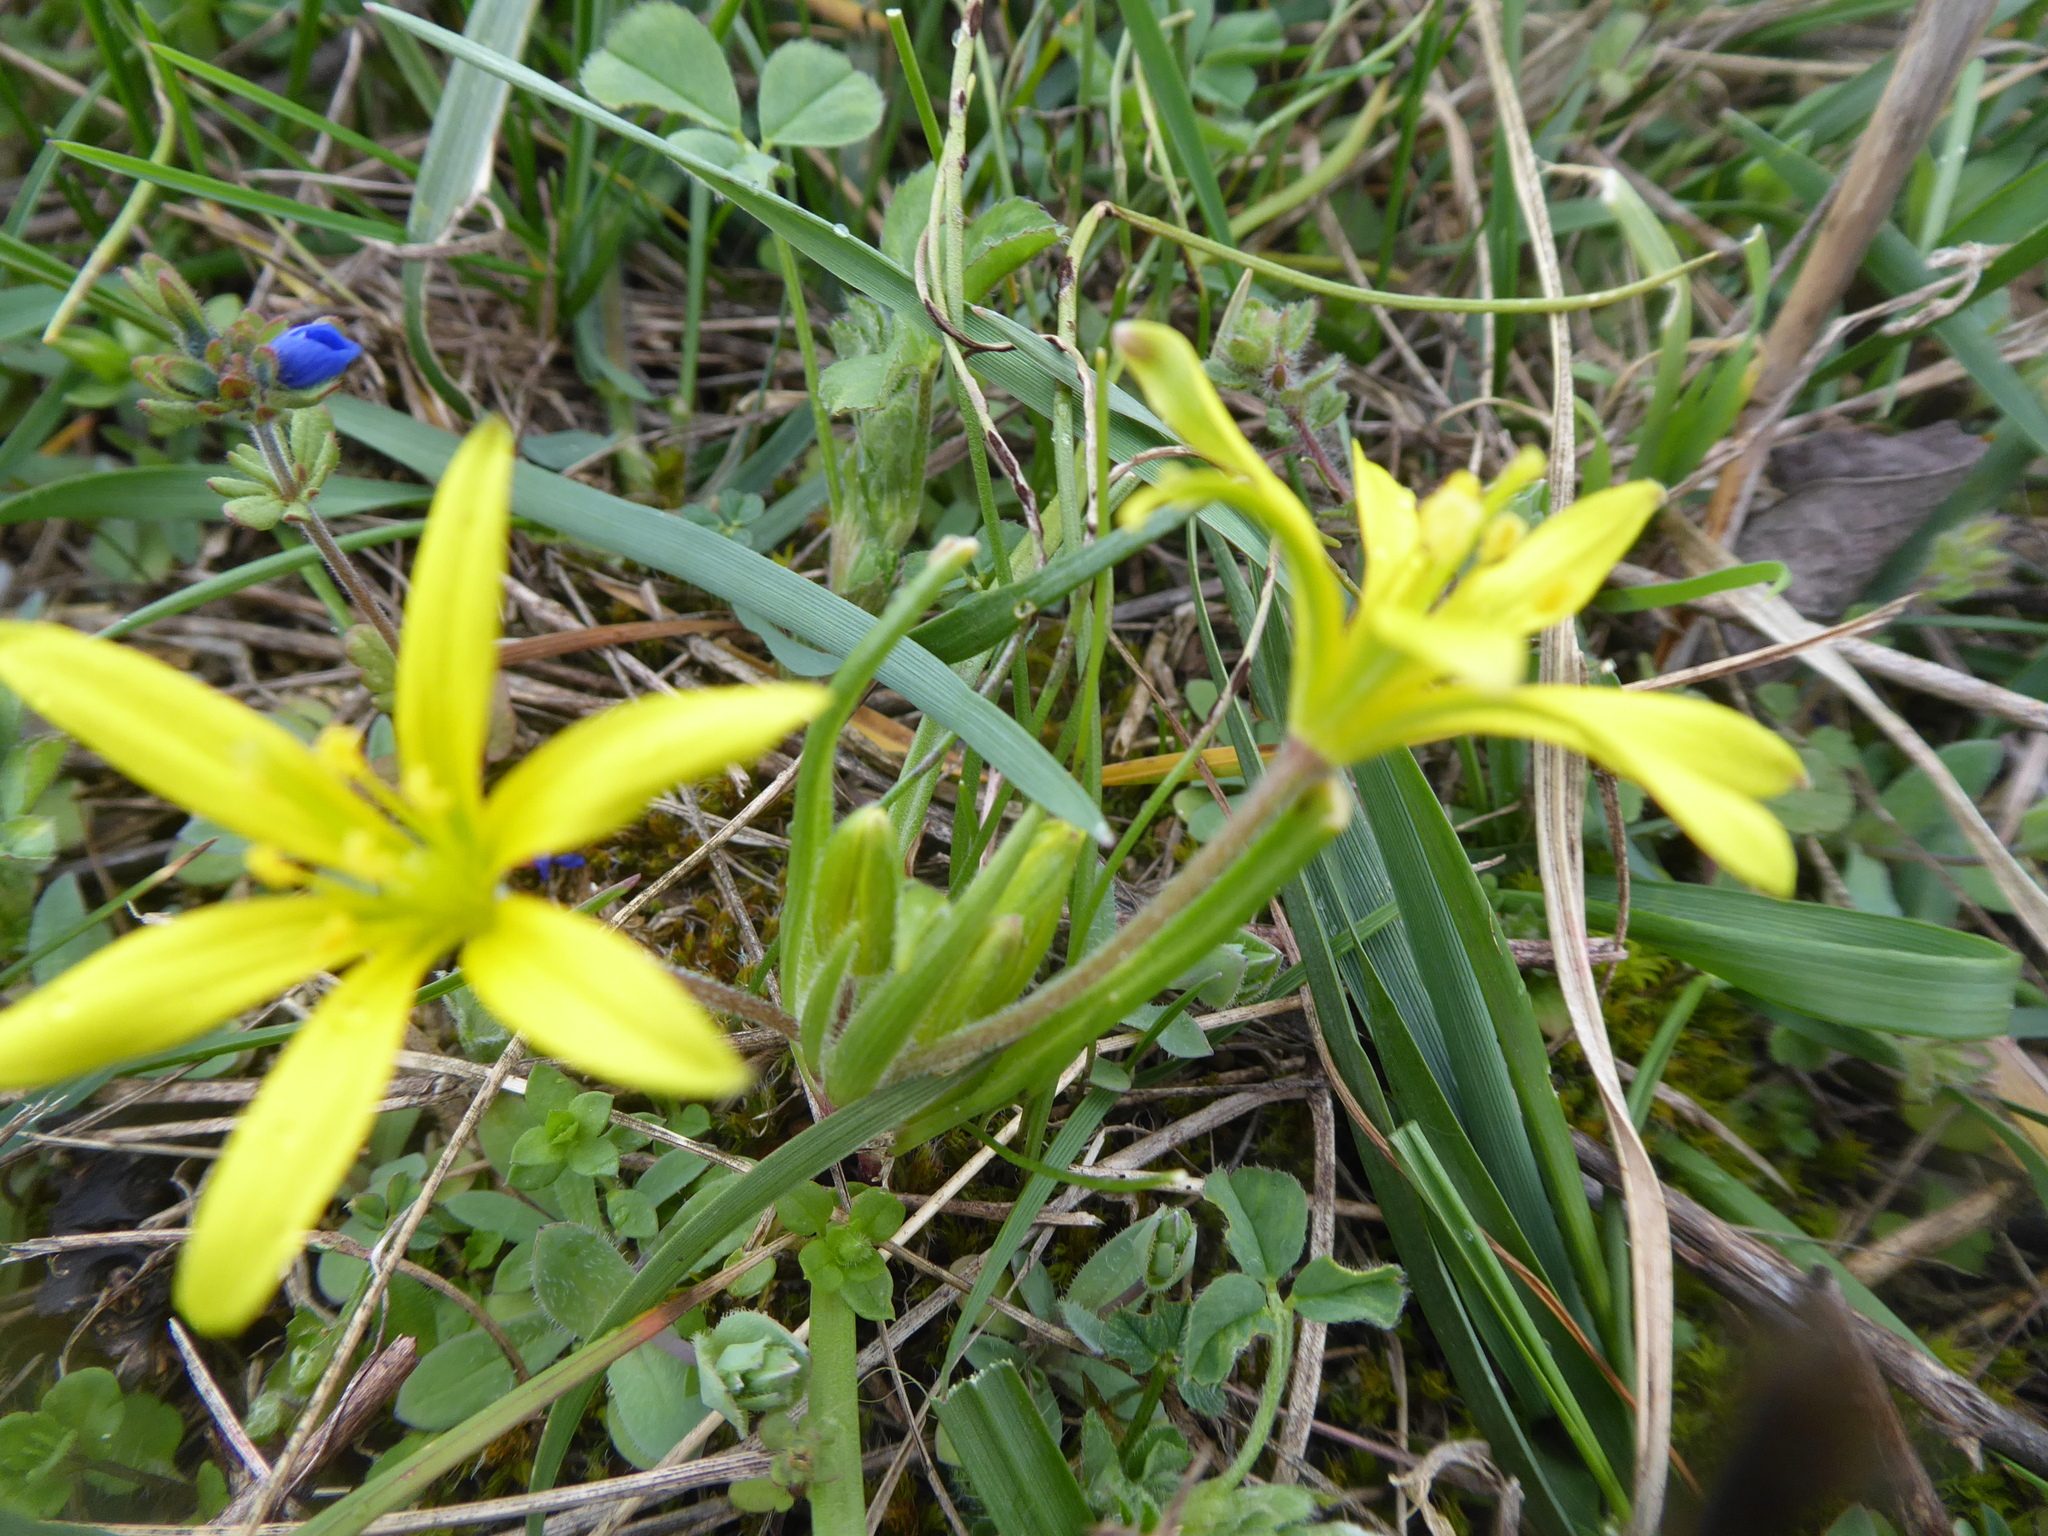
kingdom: Plantae
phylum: Tracheophyta
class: Liliopsida
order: Liliales
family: Liliaceae
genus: Gagea
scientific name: Gagea villosa
